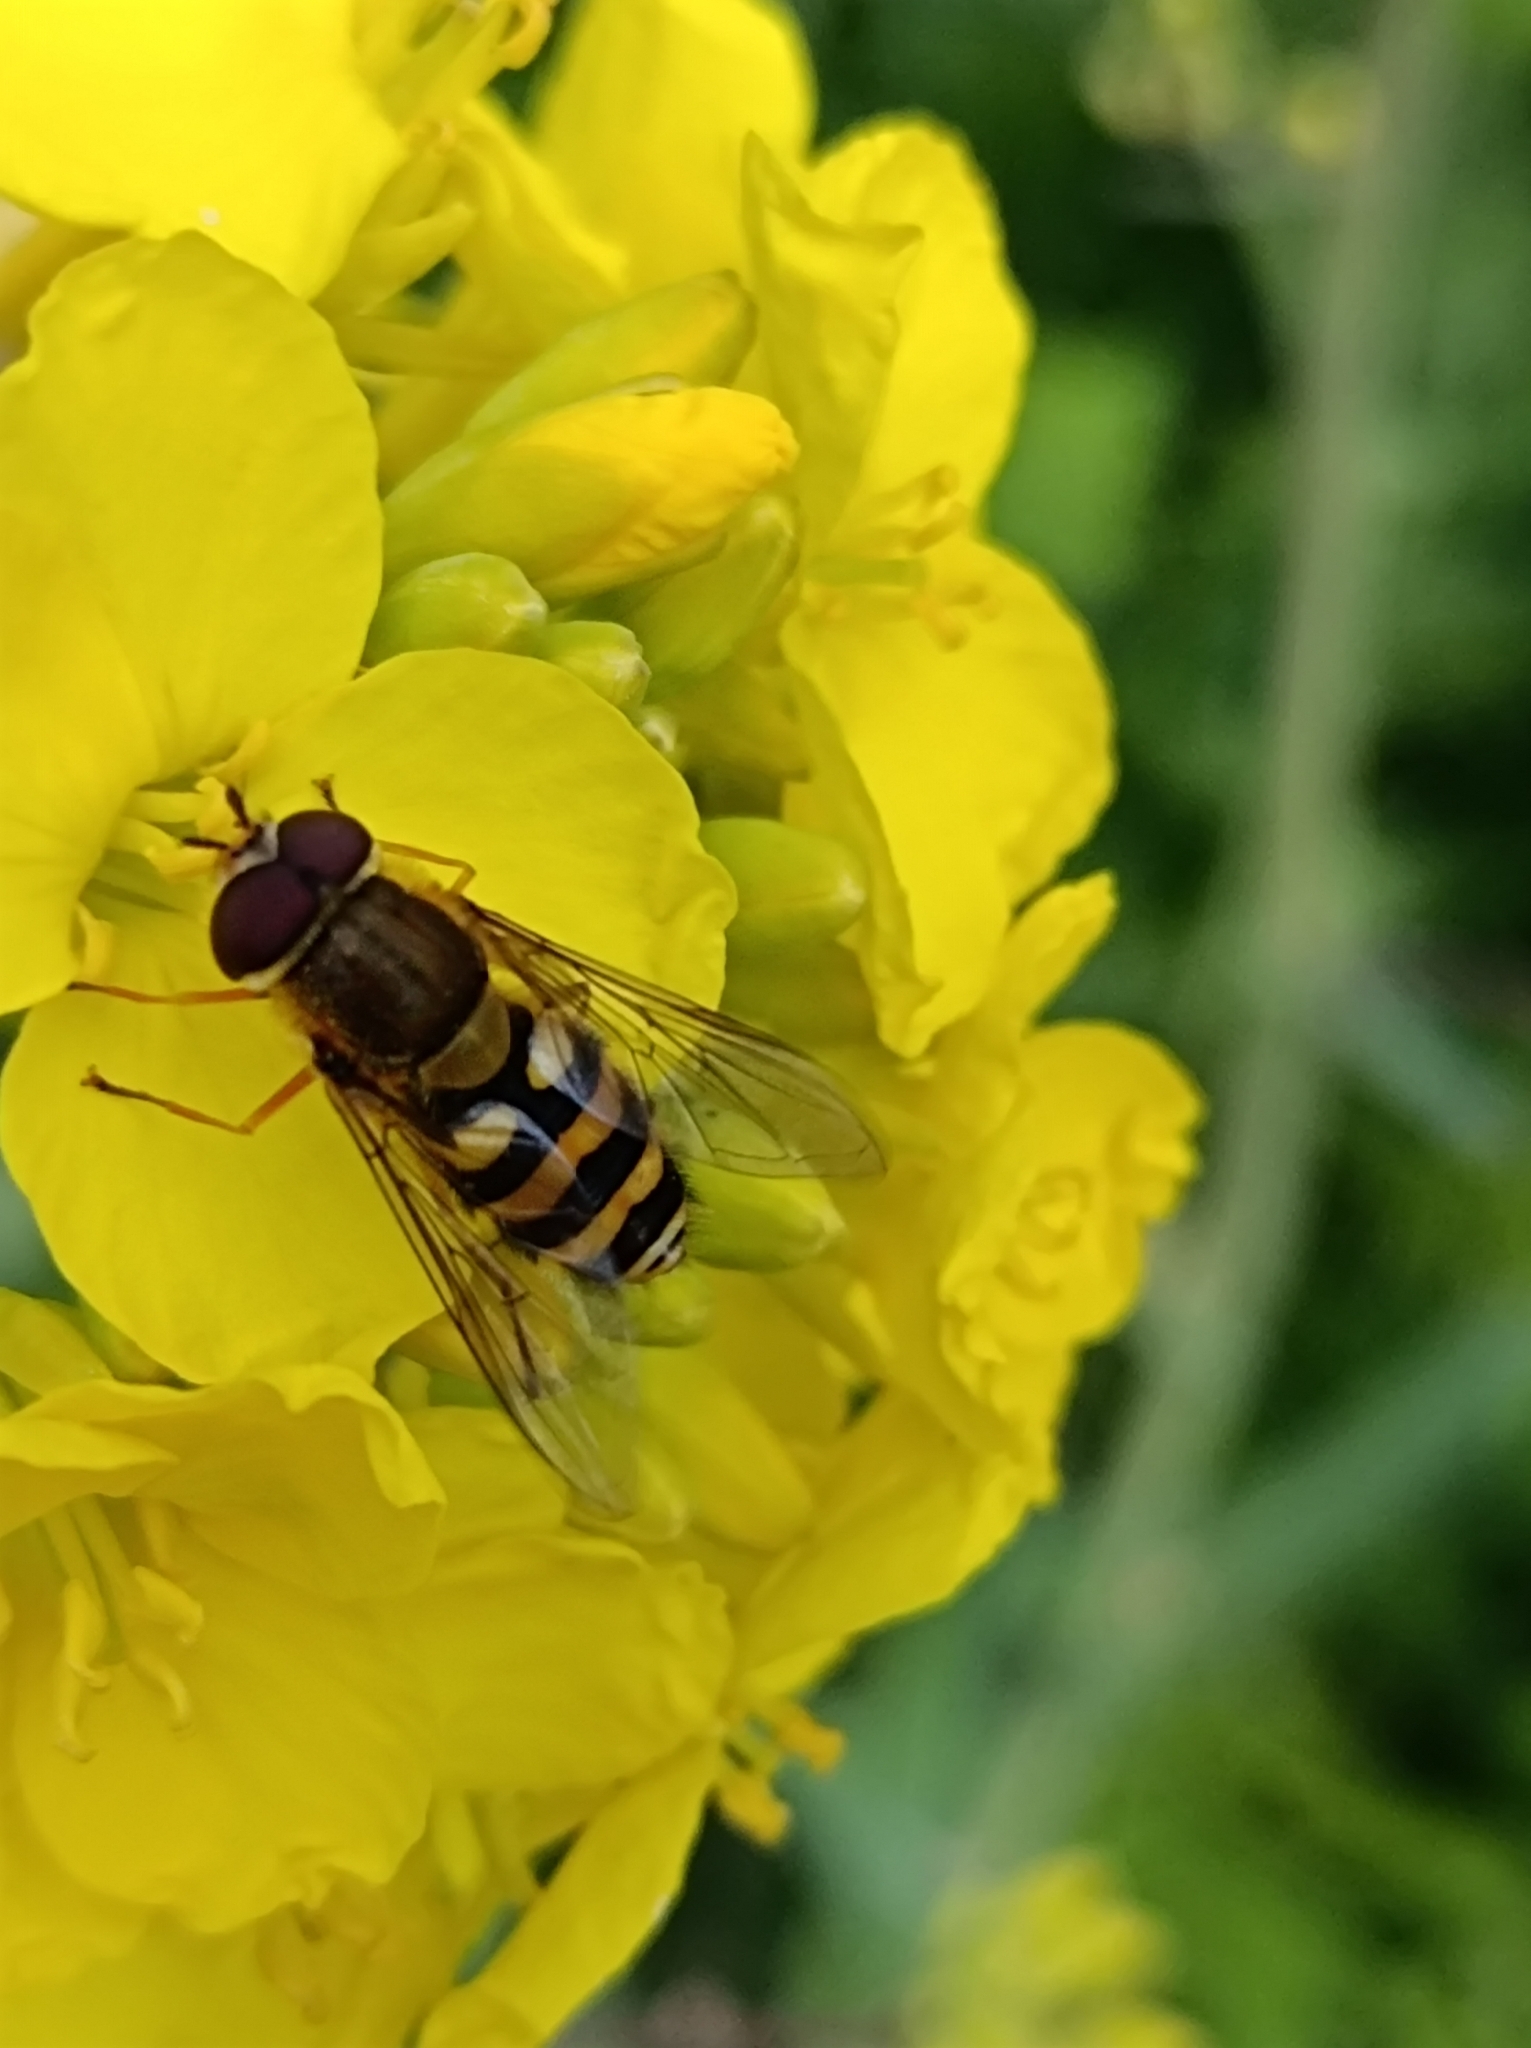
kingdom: Animalia
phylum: Arthropoda
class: Insecta
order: Diptera
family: Syrphidae
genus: Syrphus
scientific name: Syrphus
